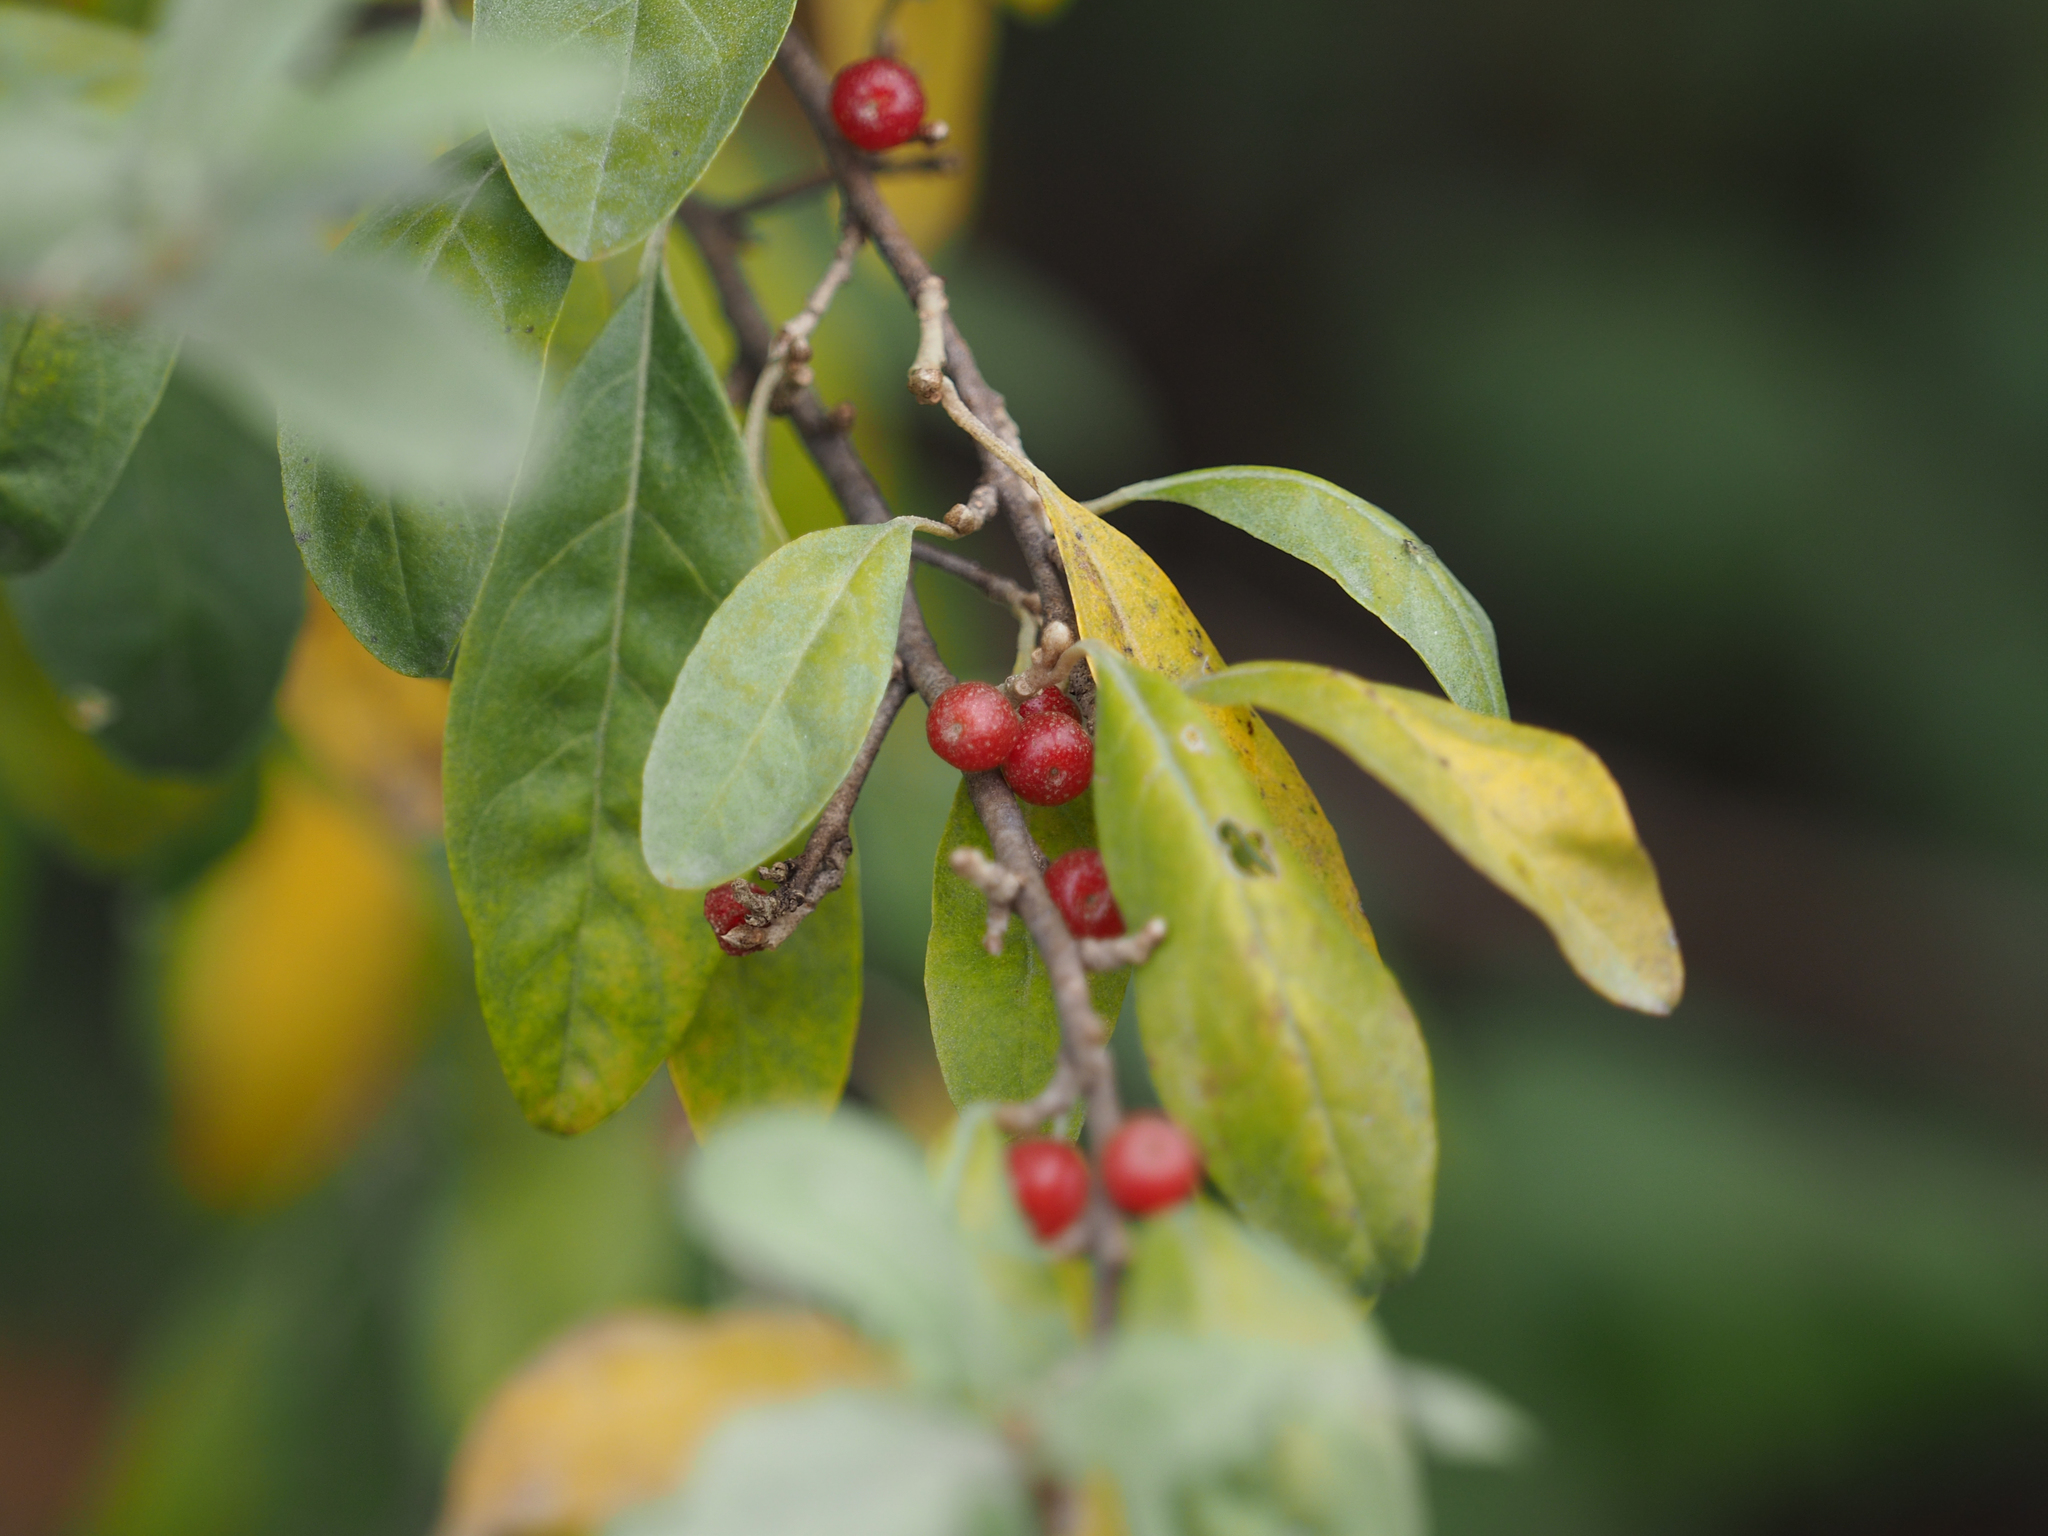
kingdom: Plantae
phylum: Tracheophyta
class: Magnoliopsida
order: Rosales
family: Elaeagnaceae
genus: Elaeagnus
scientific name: Elaeagnus umbellata
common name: Autumn olive
